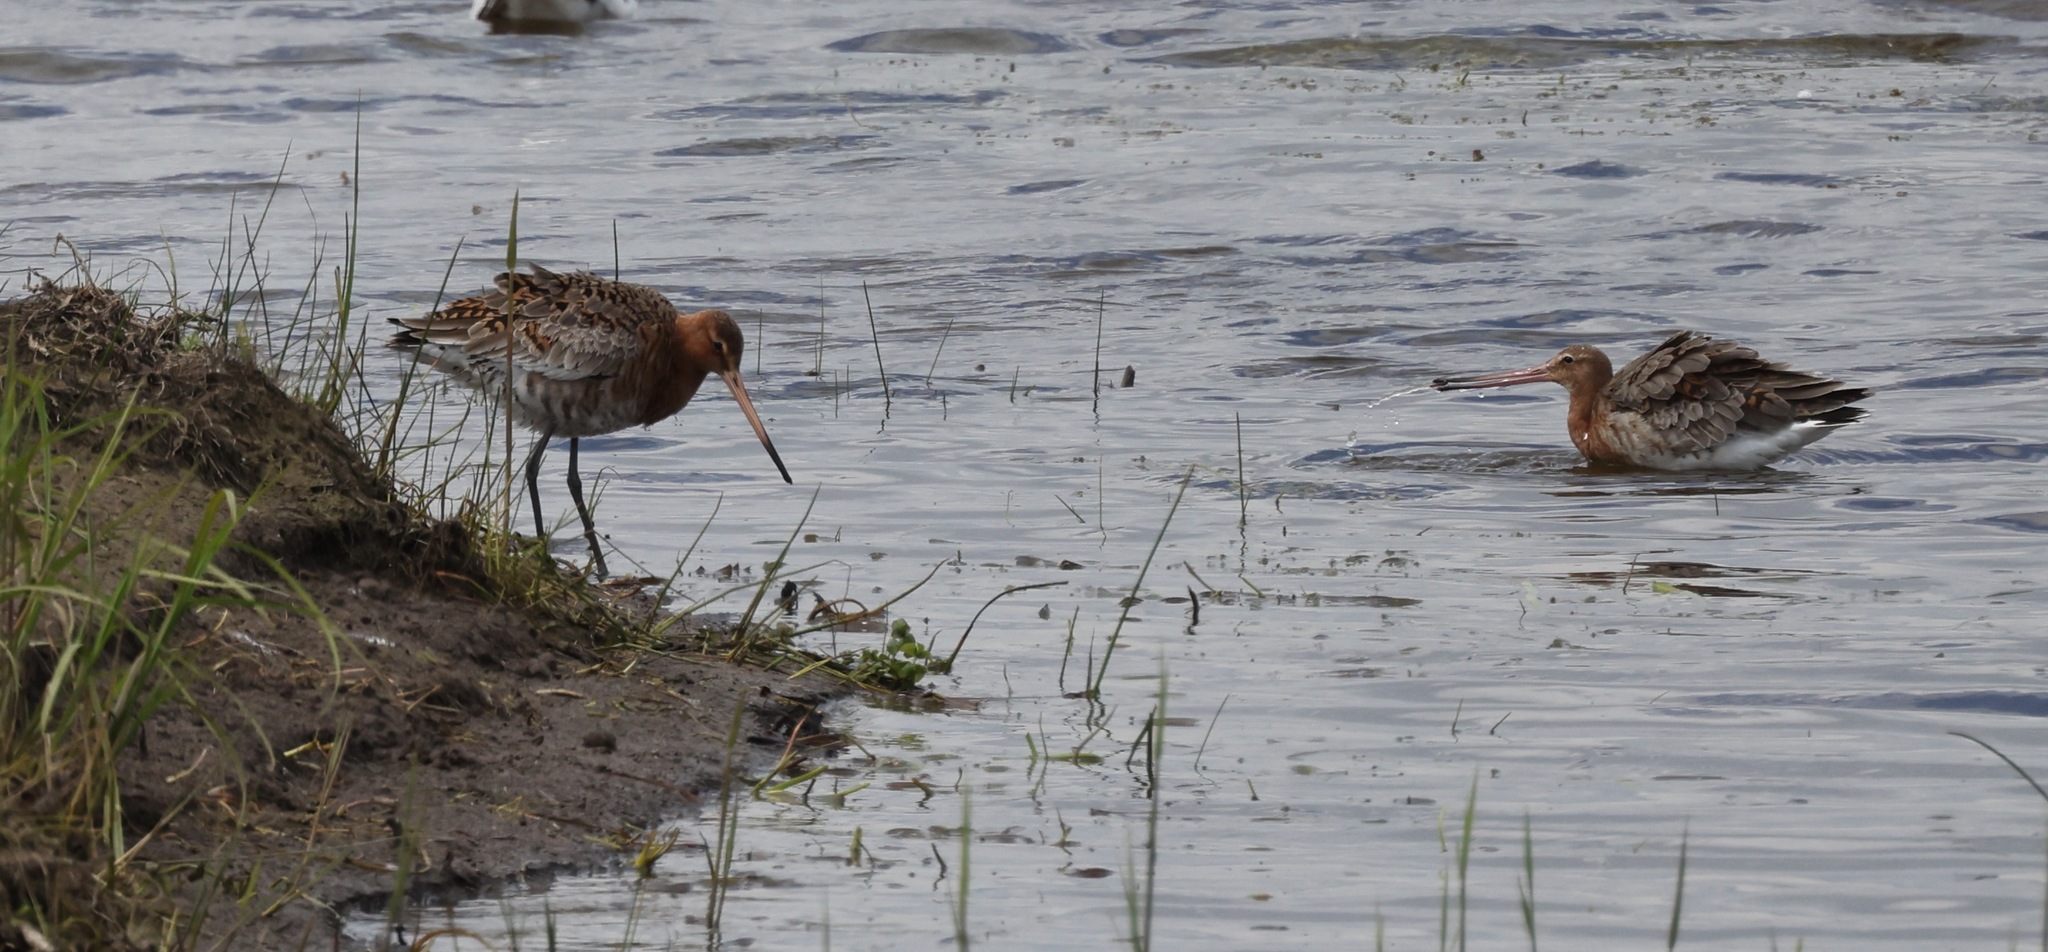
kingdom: Animalia
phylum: Chordata
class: Aves
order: Charadriiformes
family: Scolopacidae
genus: Limosa
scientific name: Limosa limosa
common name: Black-tailed godwit
